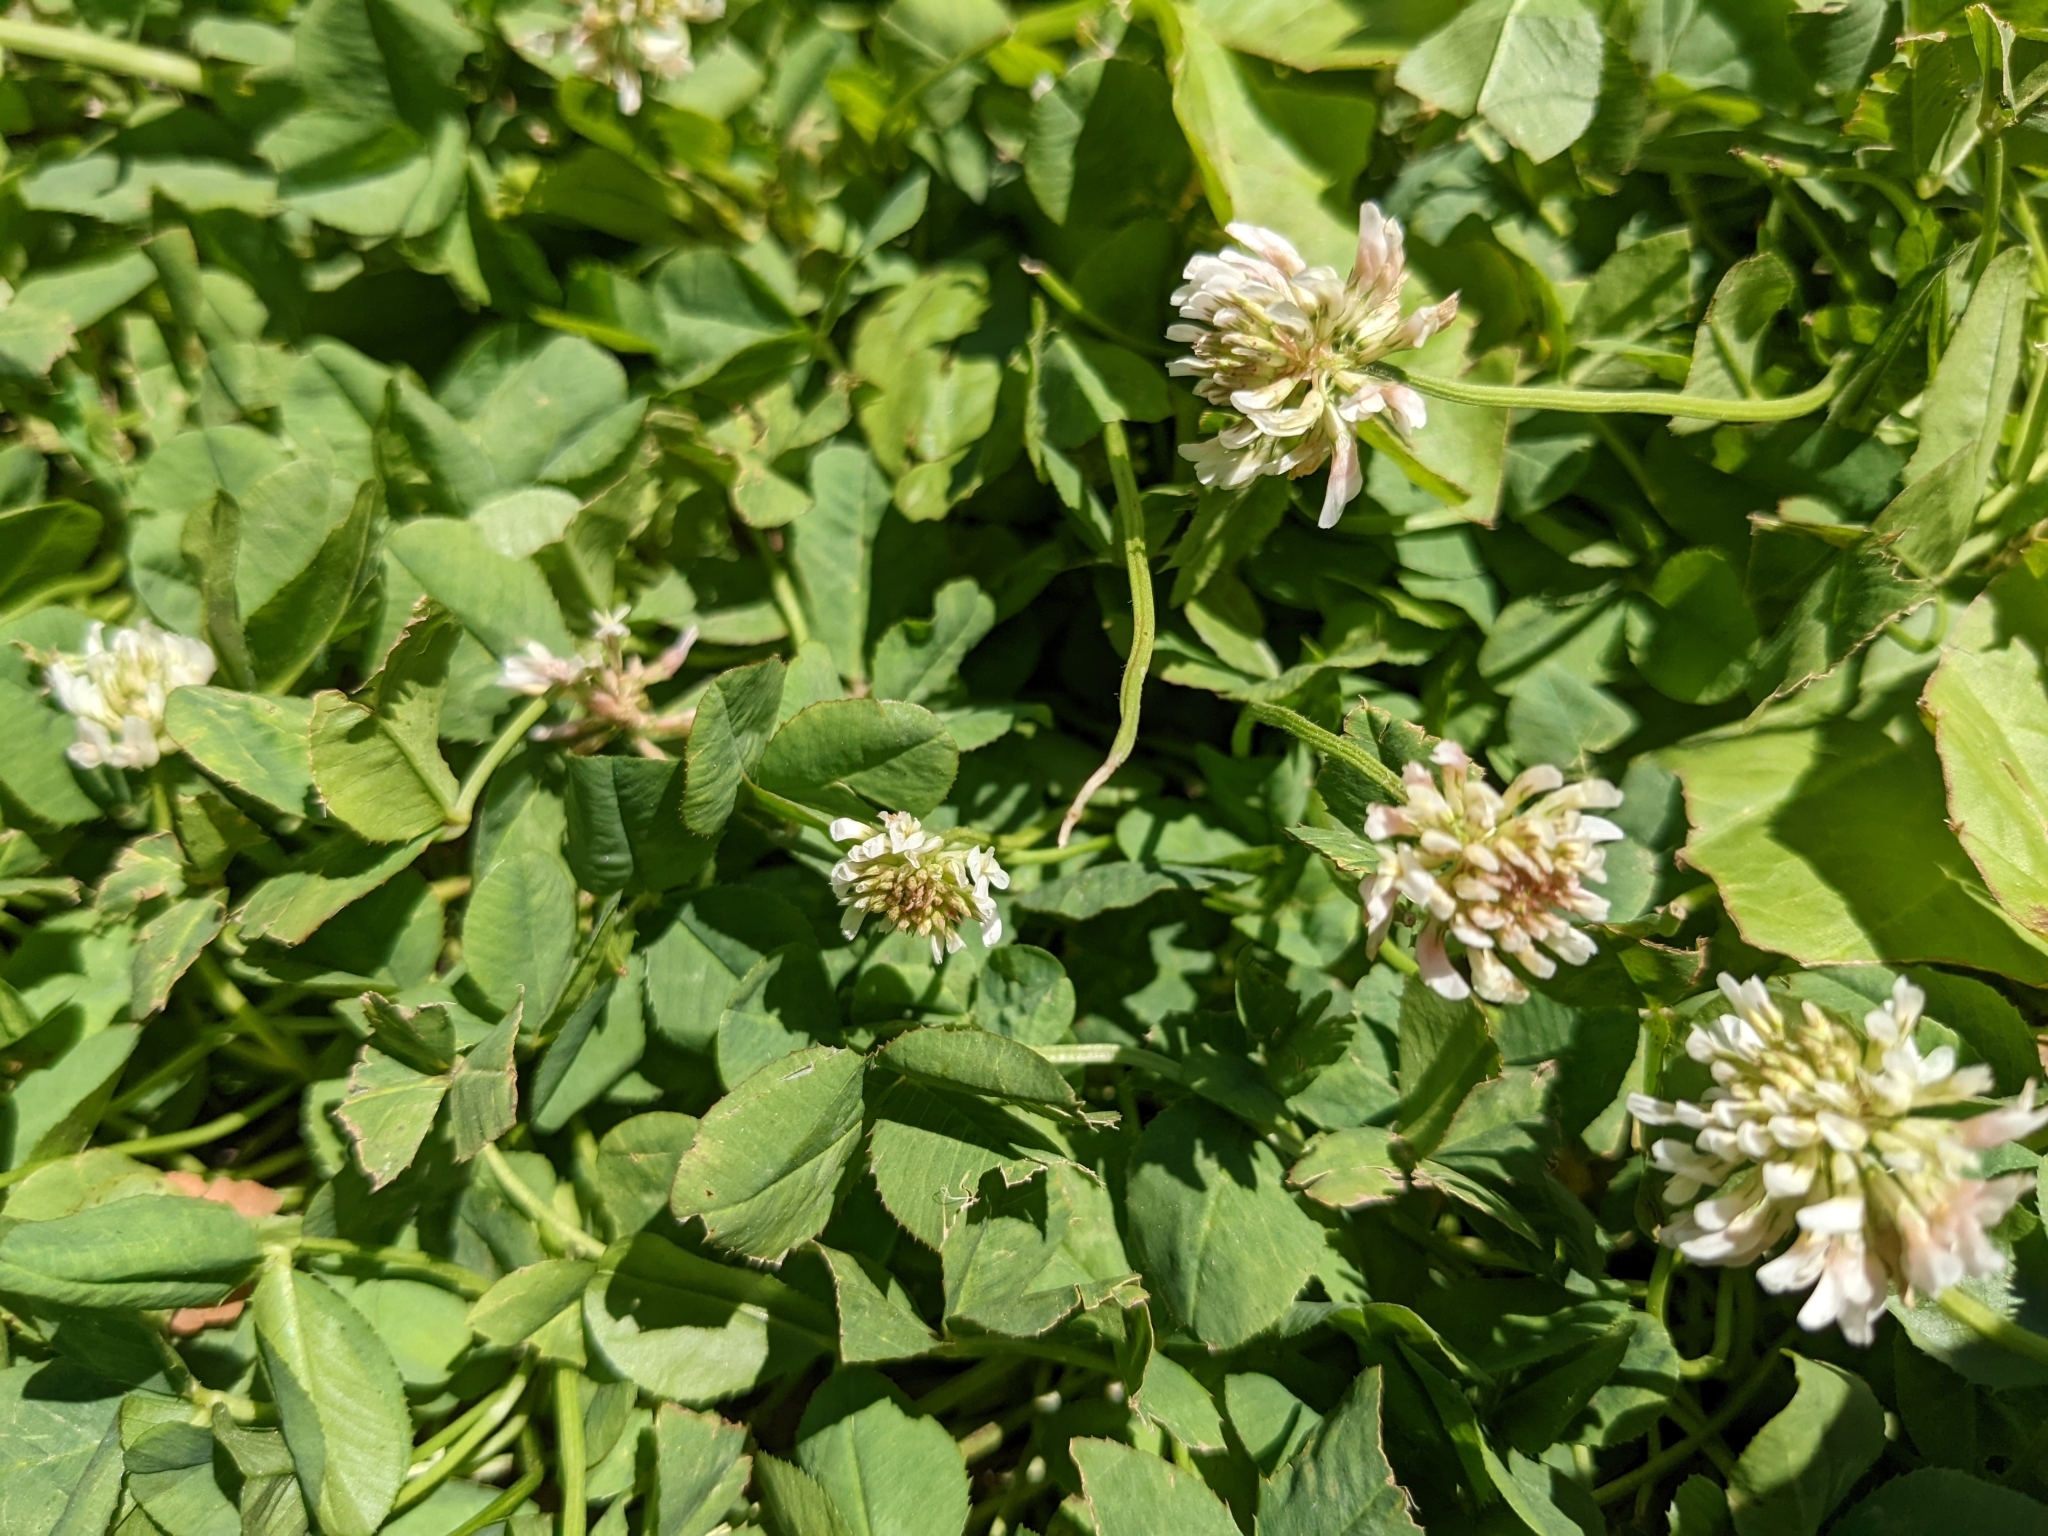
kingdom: Plantae
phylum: Tracheophyta
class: Magnoliopsida
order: Fabales
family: Fabaceae
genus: Trifolium
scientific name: Trifolium repens
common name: White clover
